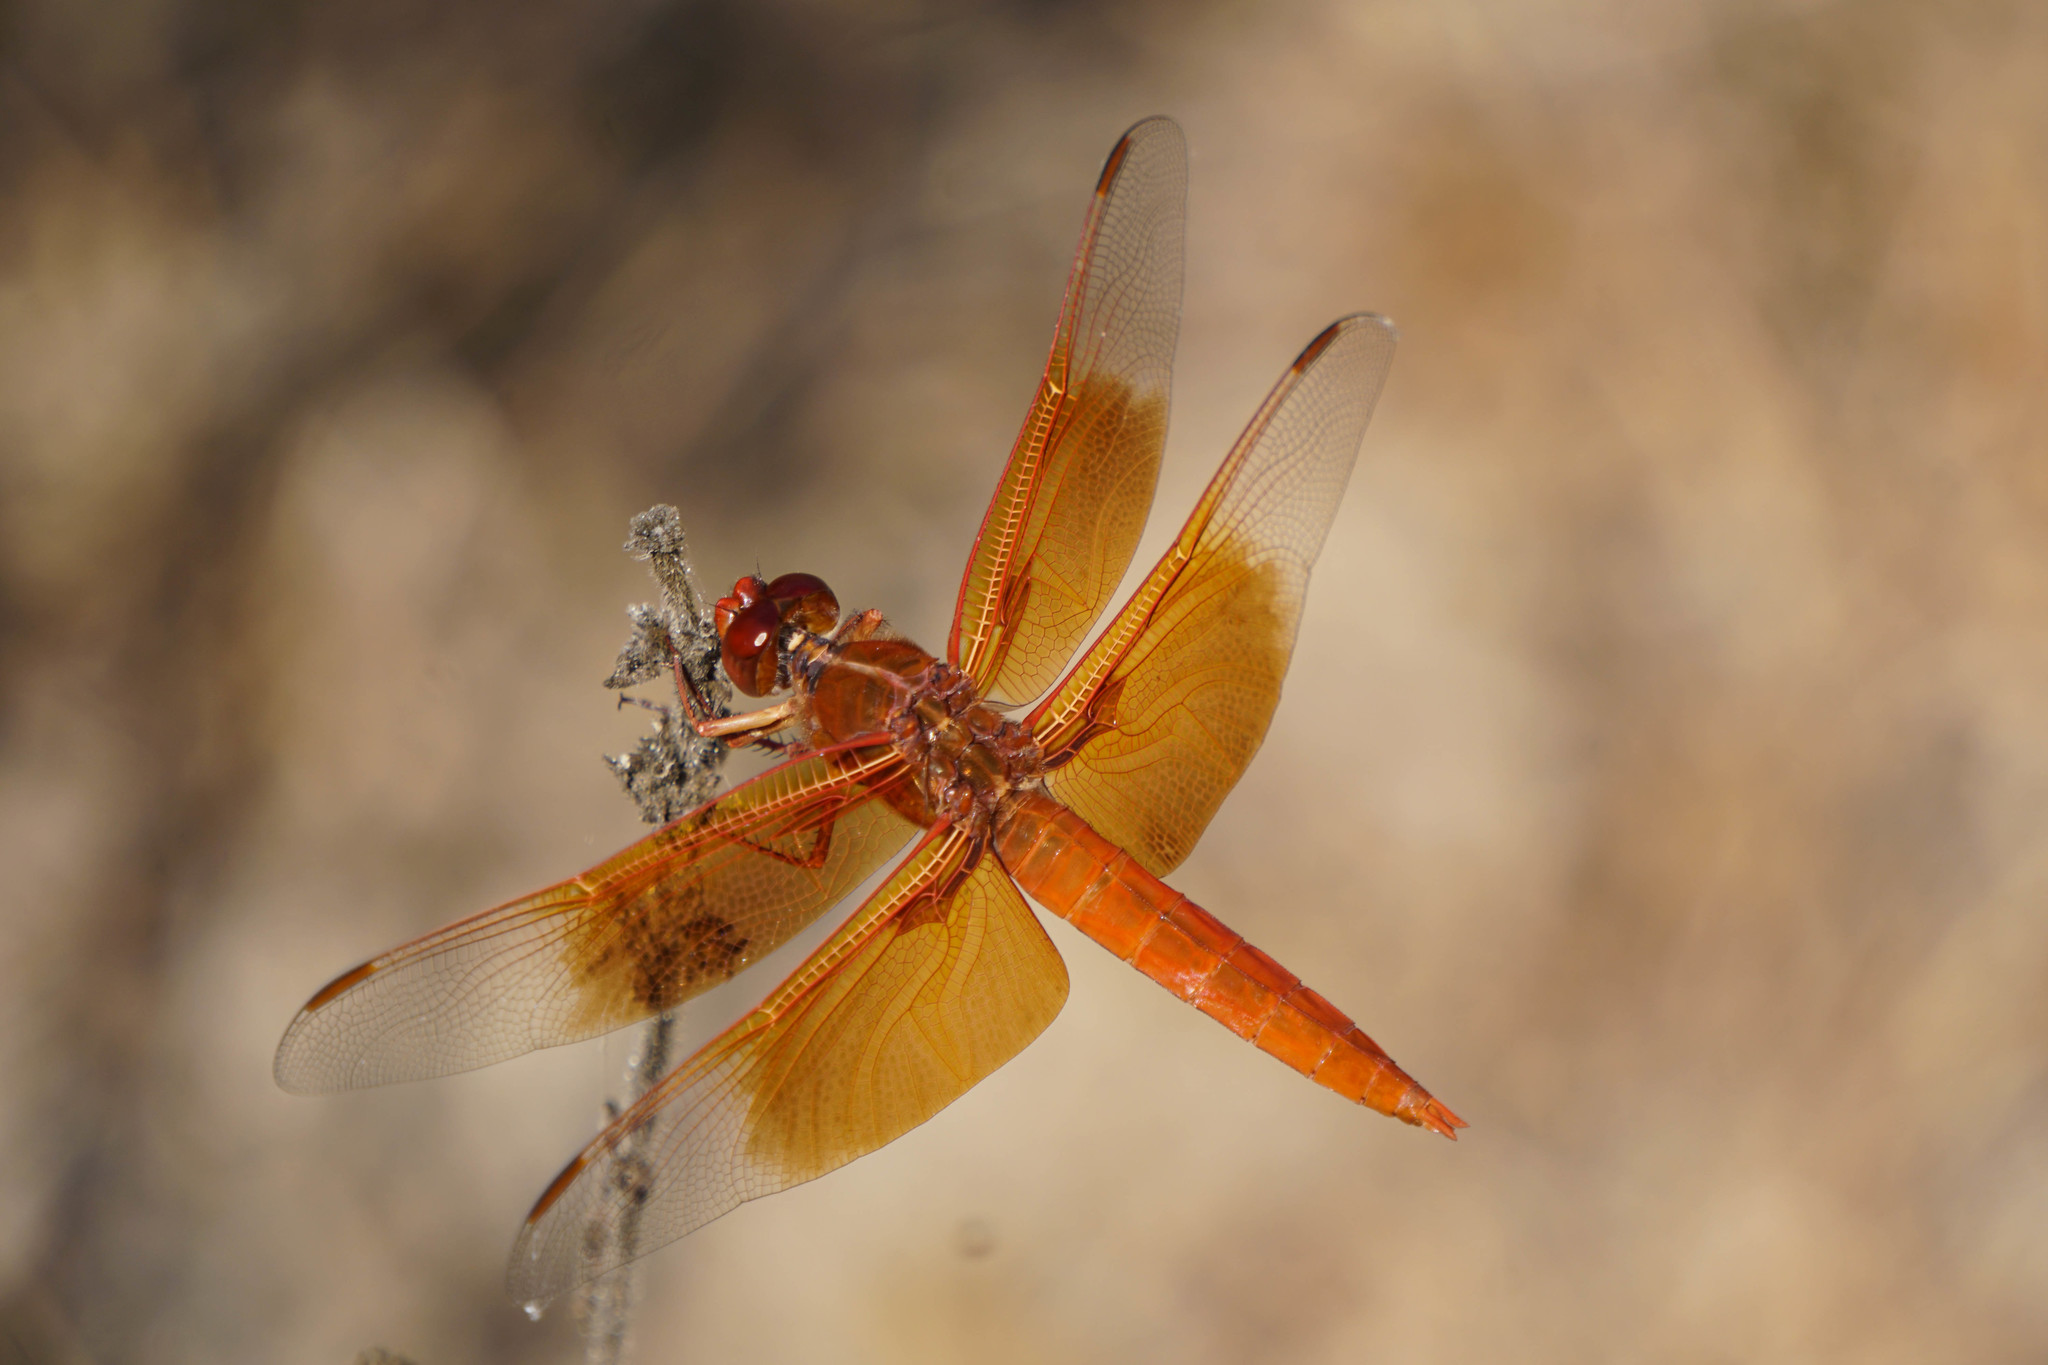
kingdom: Animalia
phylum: Arthropoda
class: Insecta
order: Odonata
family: Libellulidae
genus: Libellula
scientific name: Libellula saturata
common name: Flame skimmer
